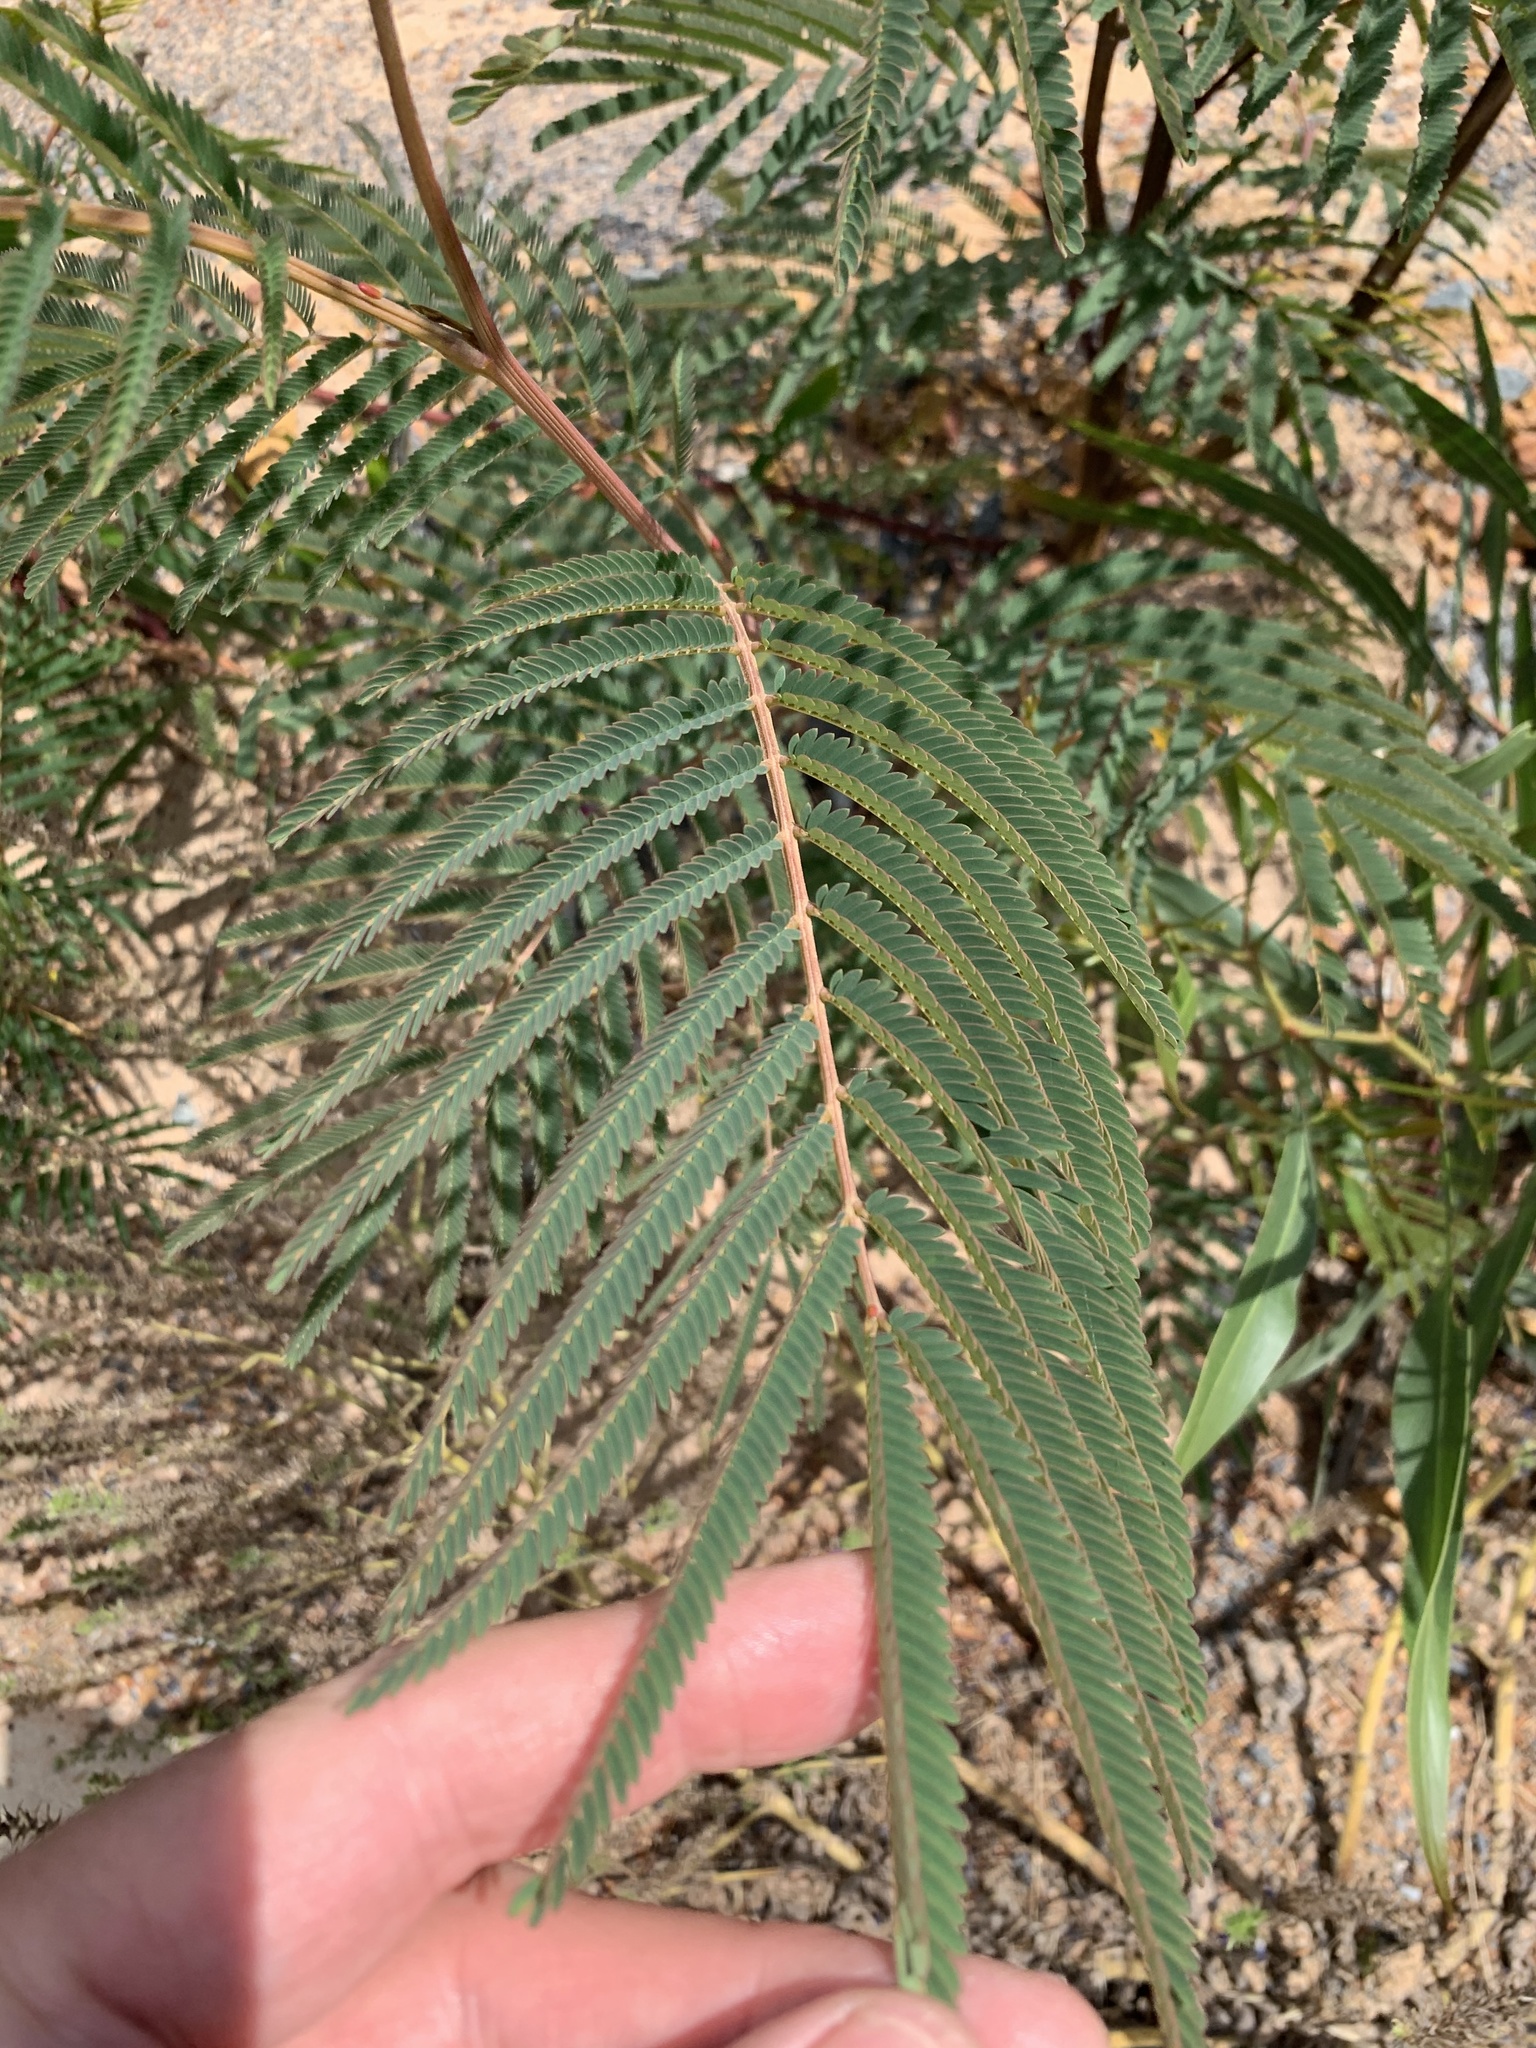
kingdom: Plantae
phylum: Tracheophyta
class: Magnoliopsida
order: Fabales
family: Fabaceae
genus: Paraserianthes
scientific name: Paraserianthes lophantha
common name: Plume albizia
